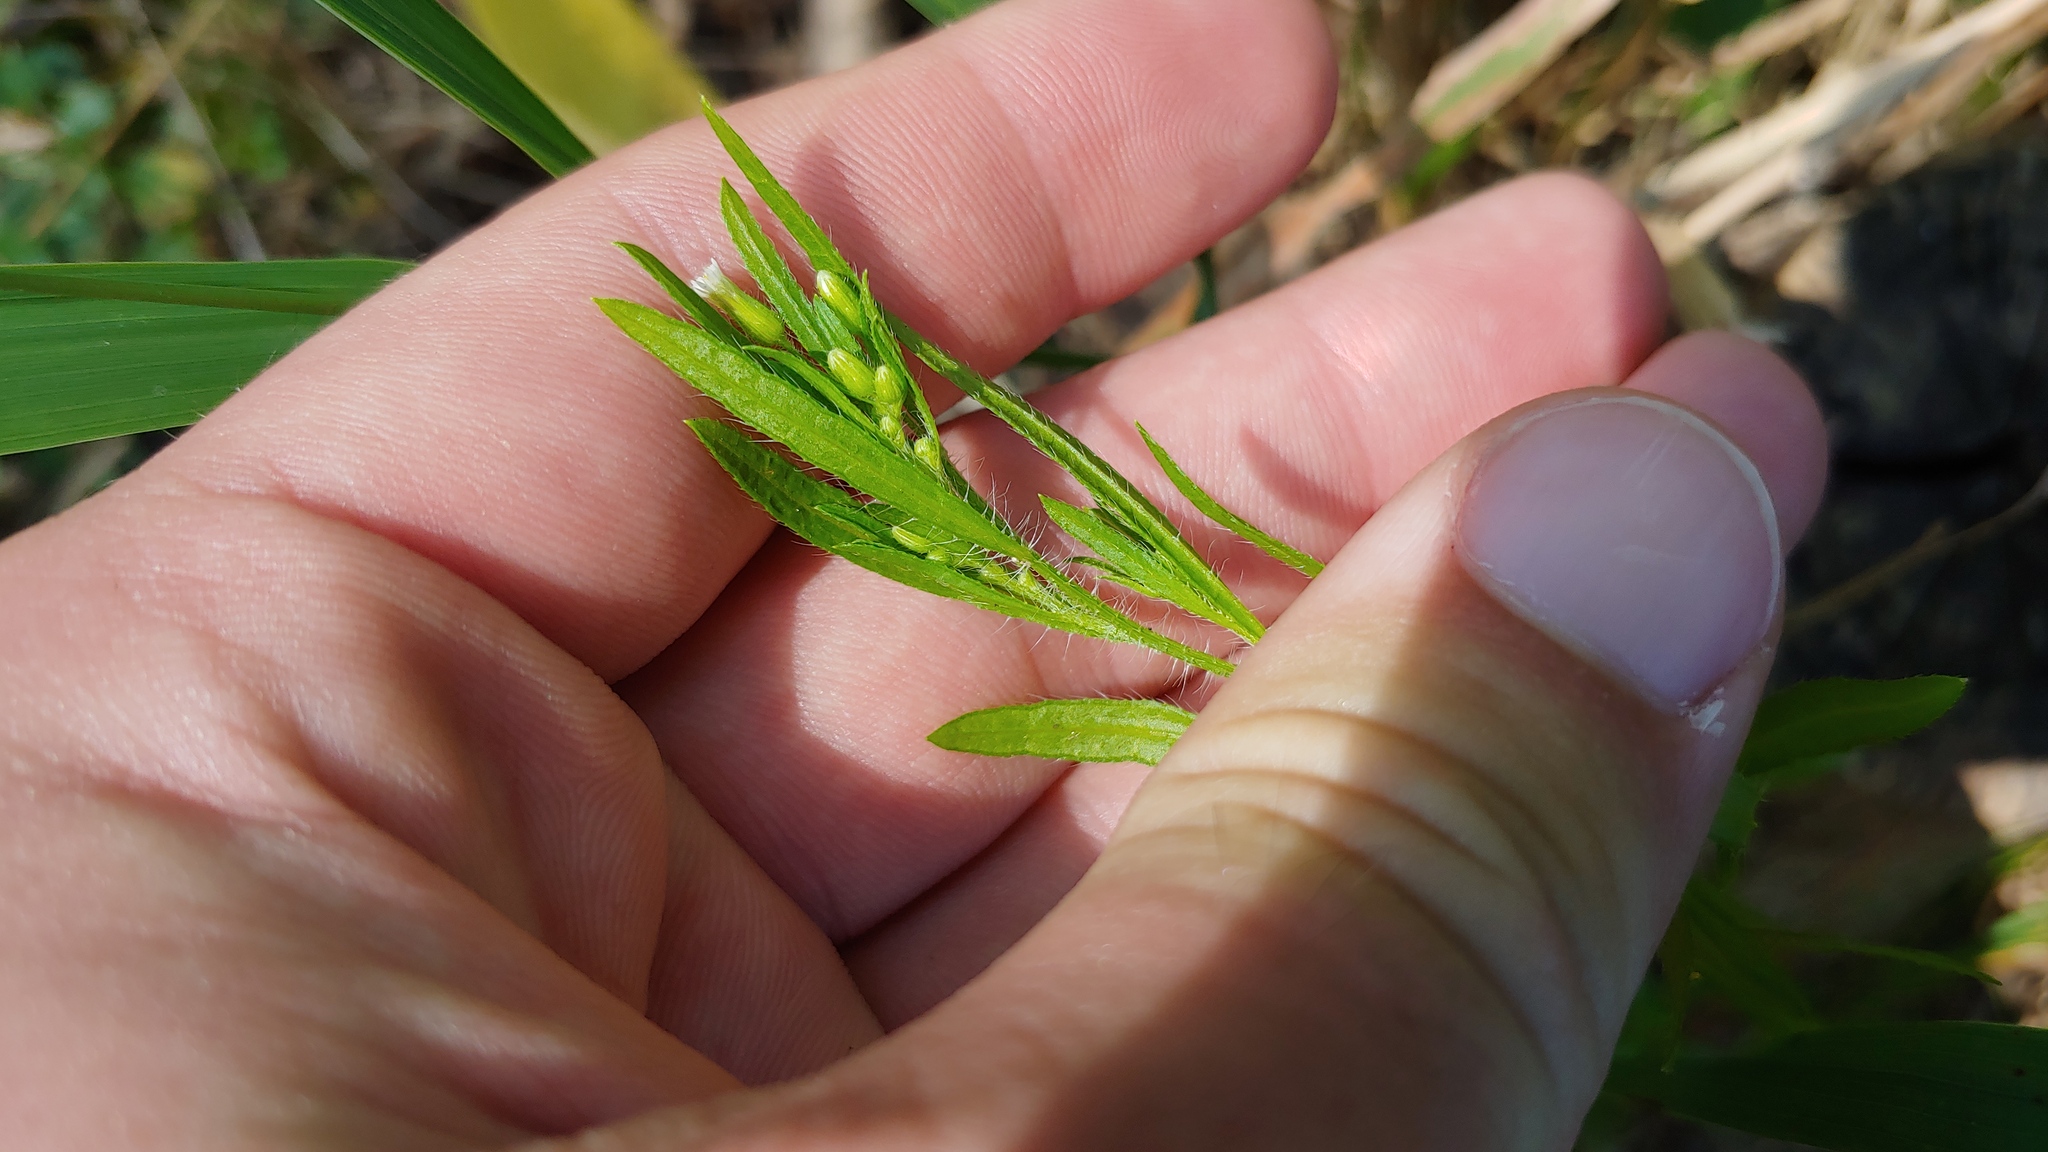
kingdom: Plantae
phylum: Tracheophyta
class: Magnoliopsida
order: Asterales
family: Asteraceae
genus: Erigeron
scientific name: Erigeron canadensis
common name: Canadian fleabane
